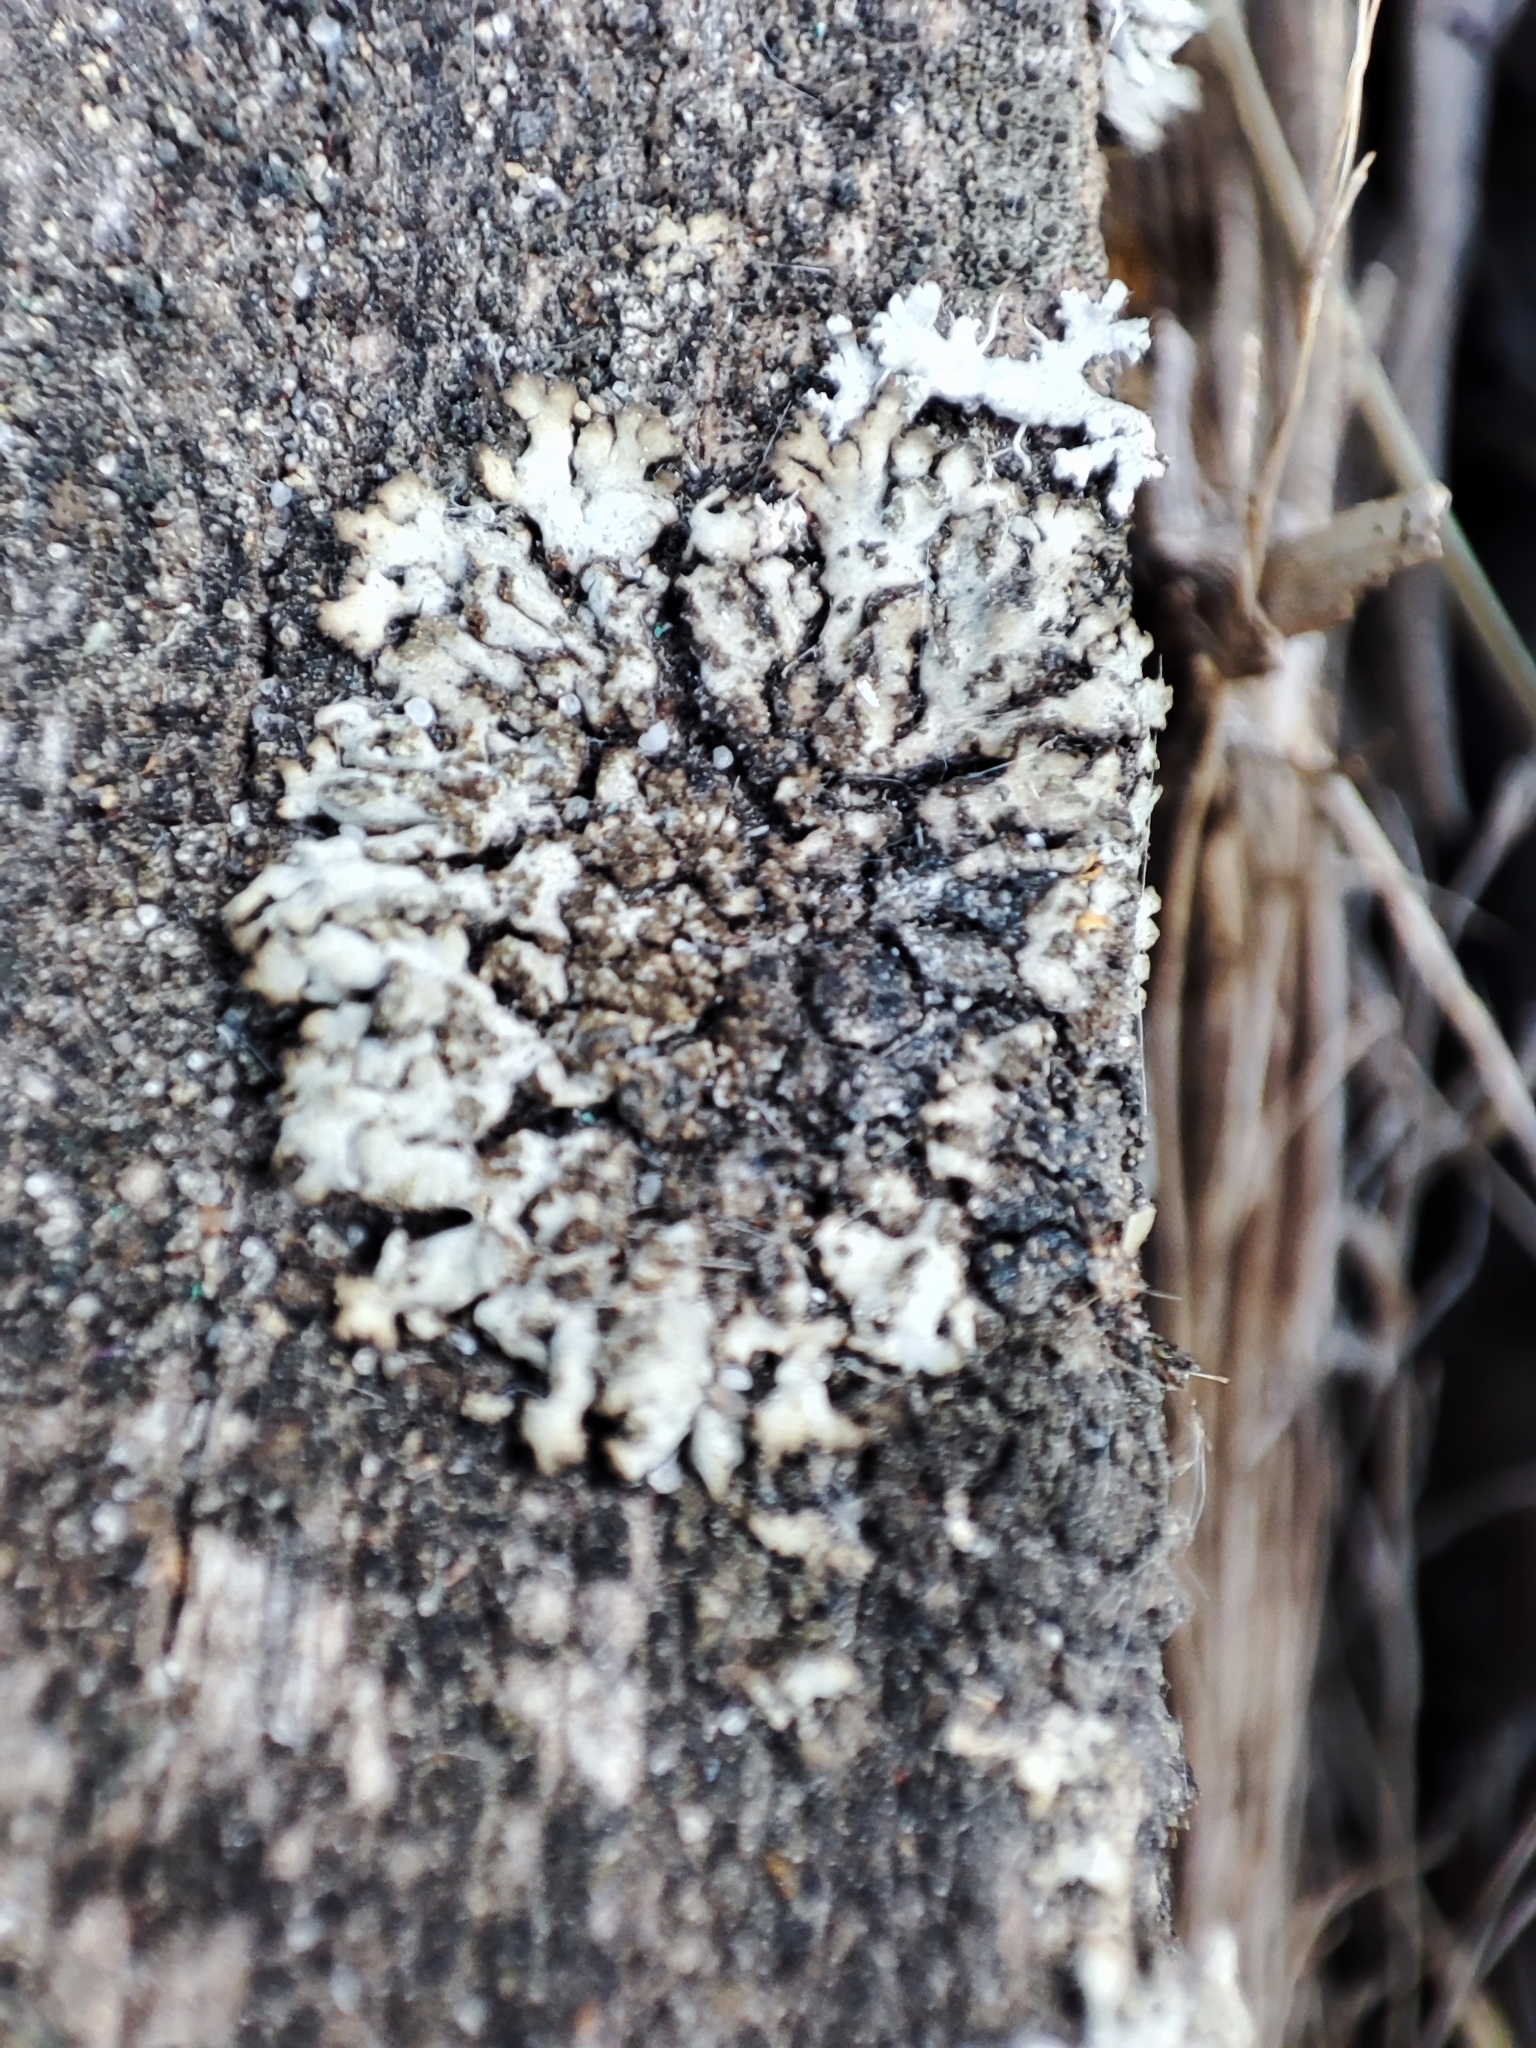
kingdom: Fungi
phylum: Ascomycota
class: Lecanoromycetes
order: Caliciales
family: Physciaceae
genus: Phaeophyscia
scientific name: Phaeophyscia orbicularis
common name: Mealy shadow lichen
